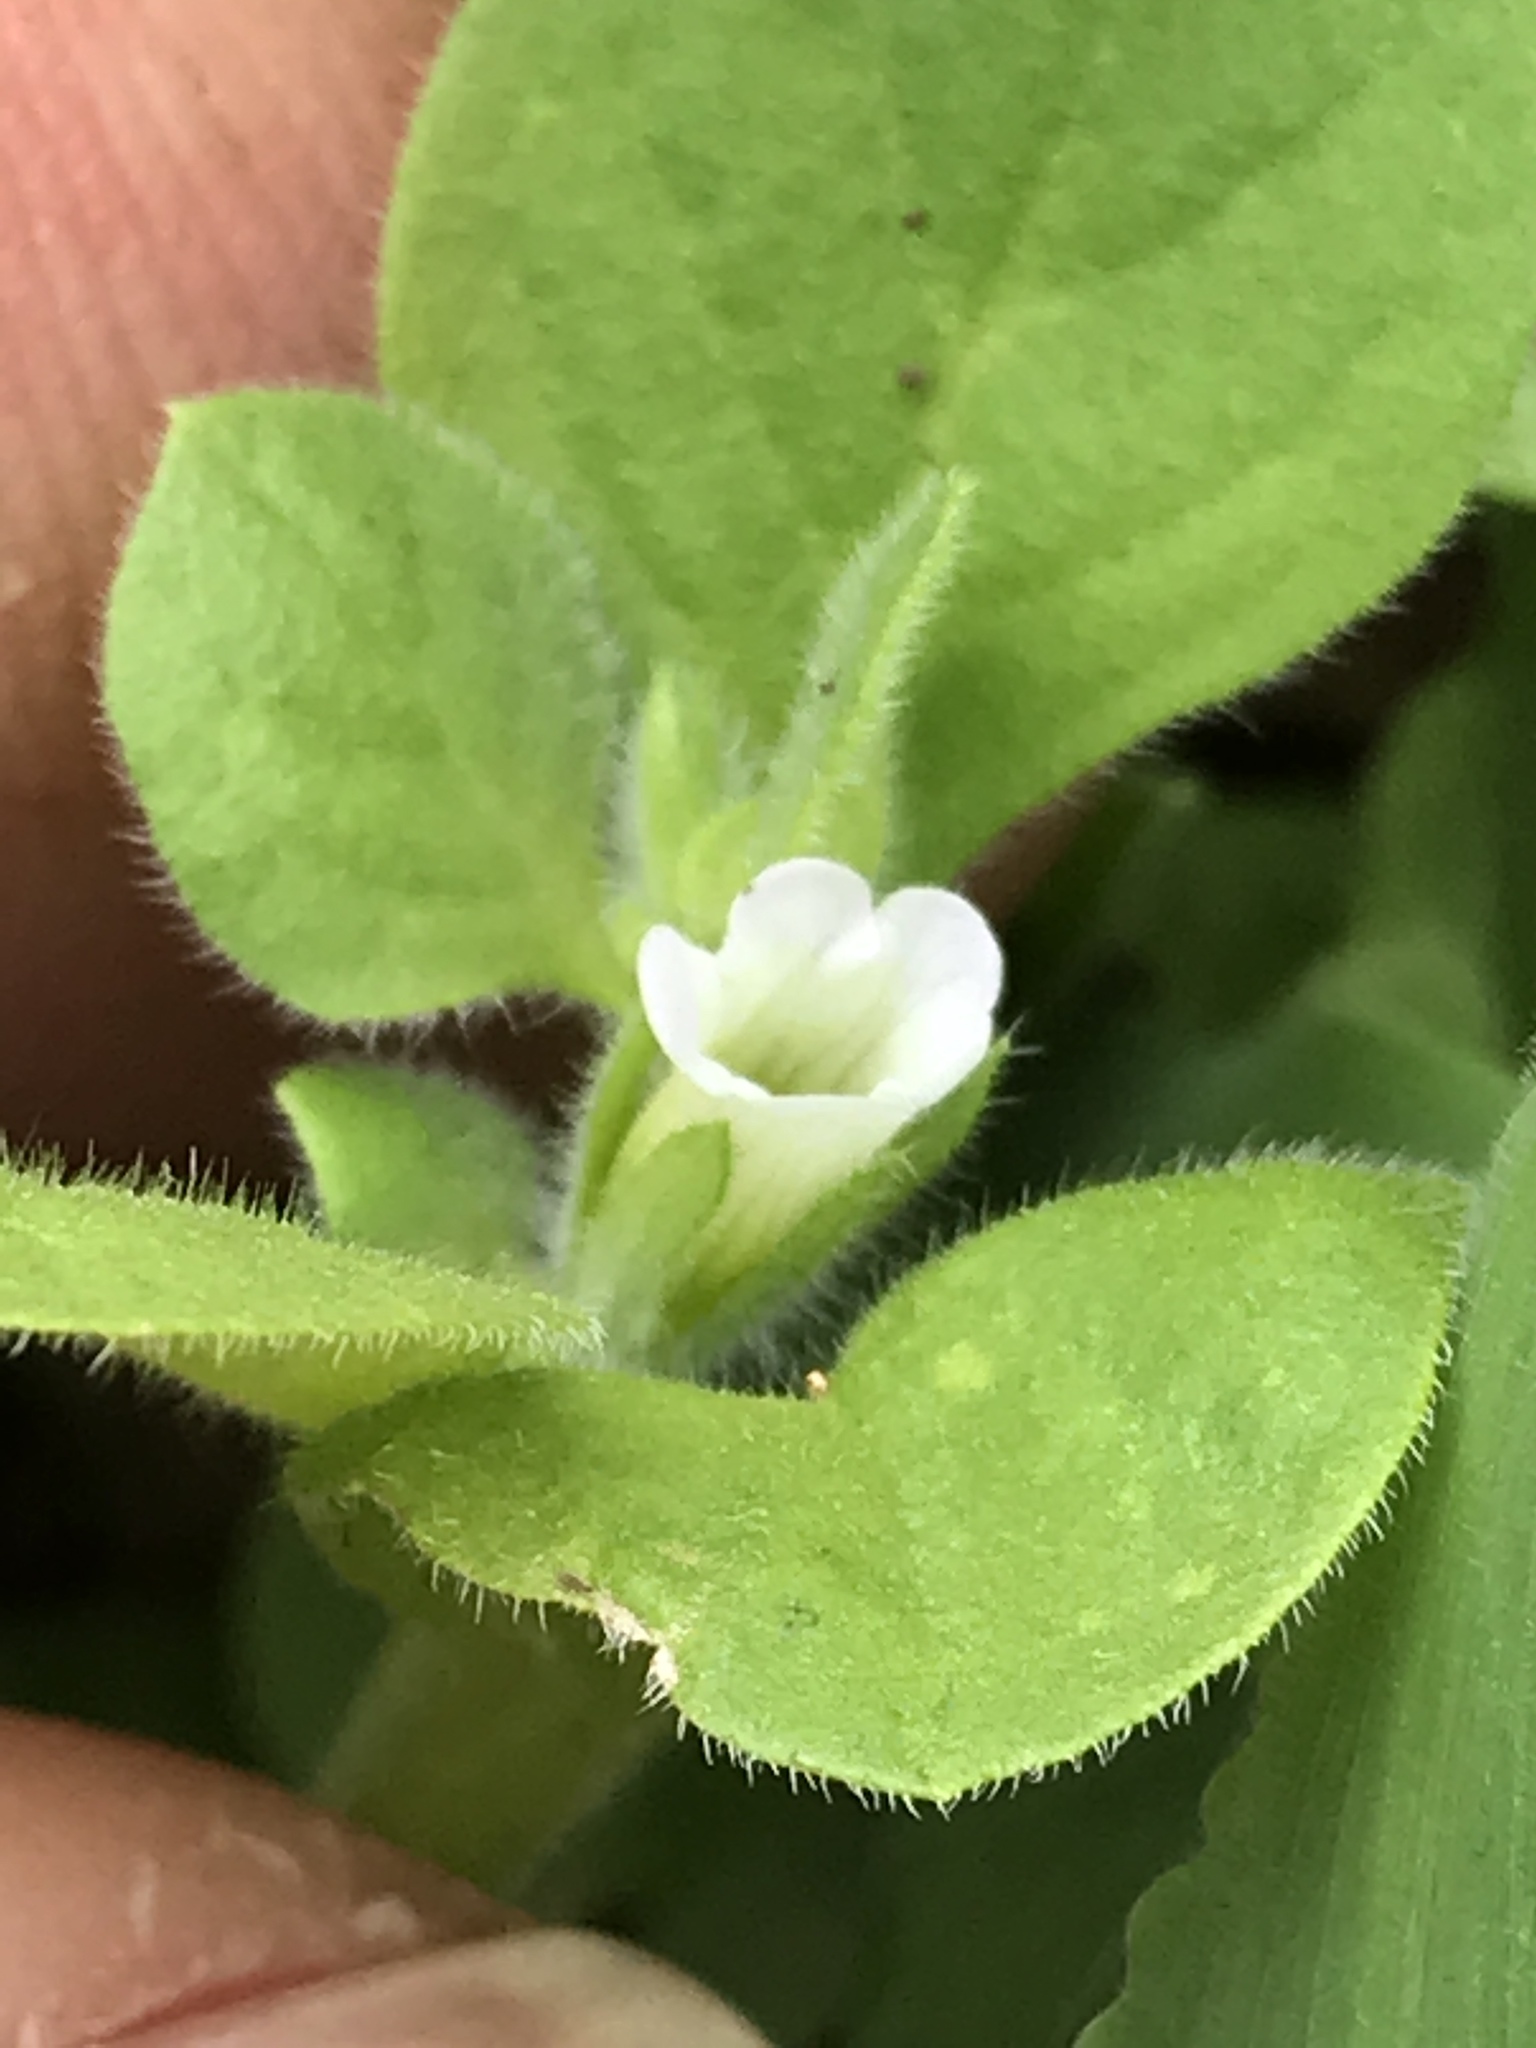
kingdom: Plantae
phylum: Tracheophyta
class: Magnoliopsida
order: Boraginales
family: Namaceae
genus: Nama
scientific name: Nama jamaicensis
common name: Jamaicanweed
